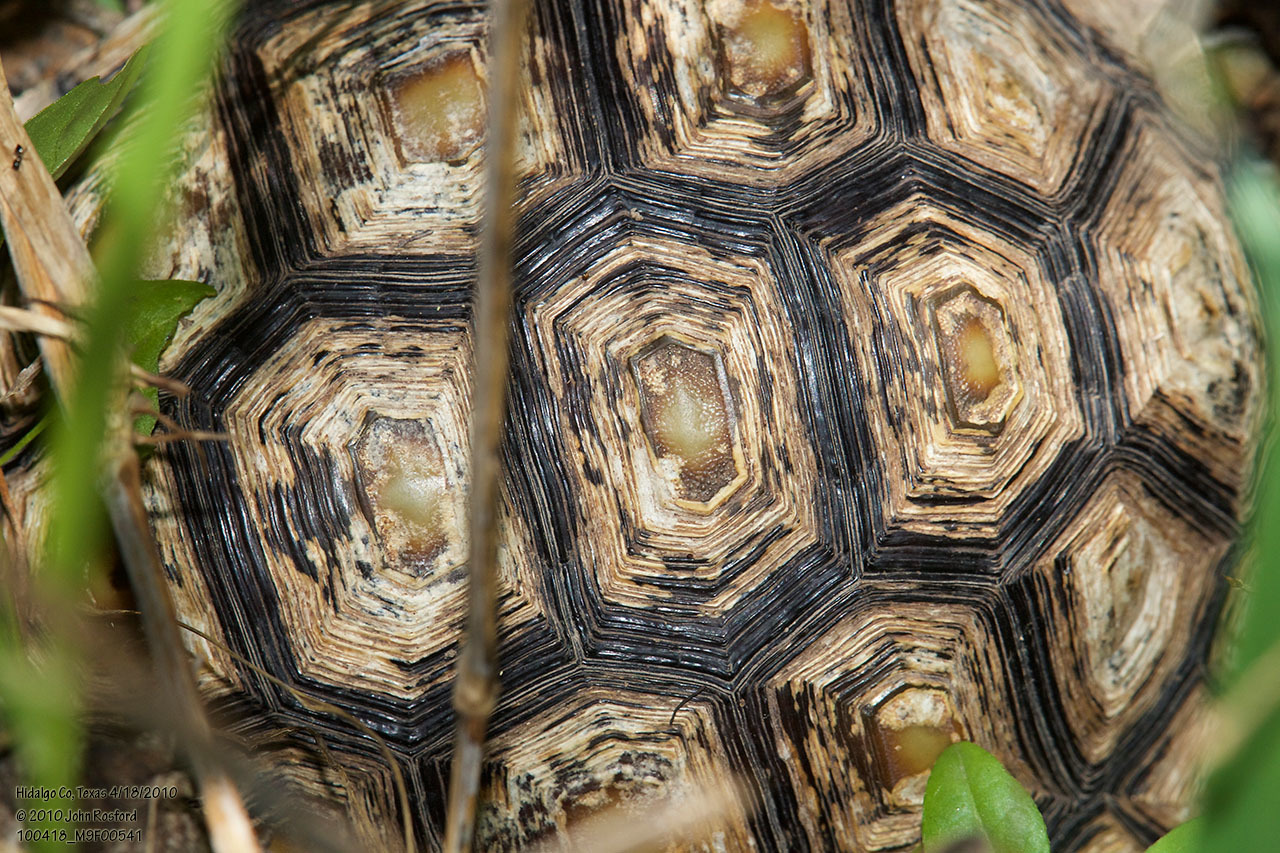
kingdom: Animalia
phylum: Chordata
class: Testudines
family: Testudinidae
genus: Gopherus
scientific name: Gopherus berlandieri
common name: Texas (gopher )tortoise
